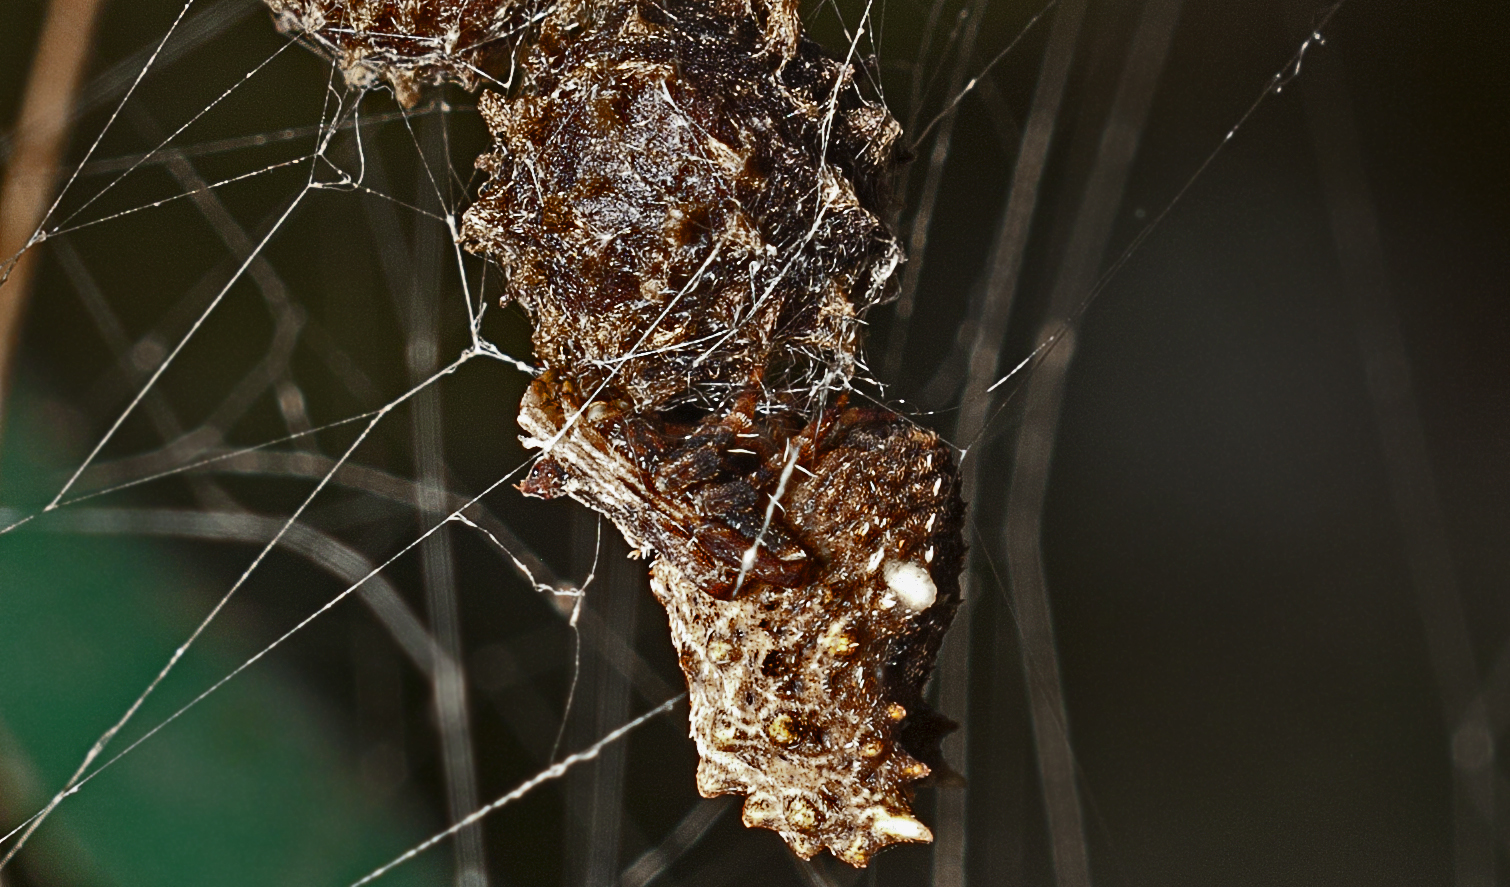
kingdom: Animalia
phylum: Arthropoda
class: Arachnida
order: Araneae
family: Araneidae
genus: Celaenia
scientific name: Celaenia calotoides
